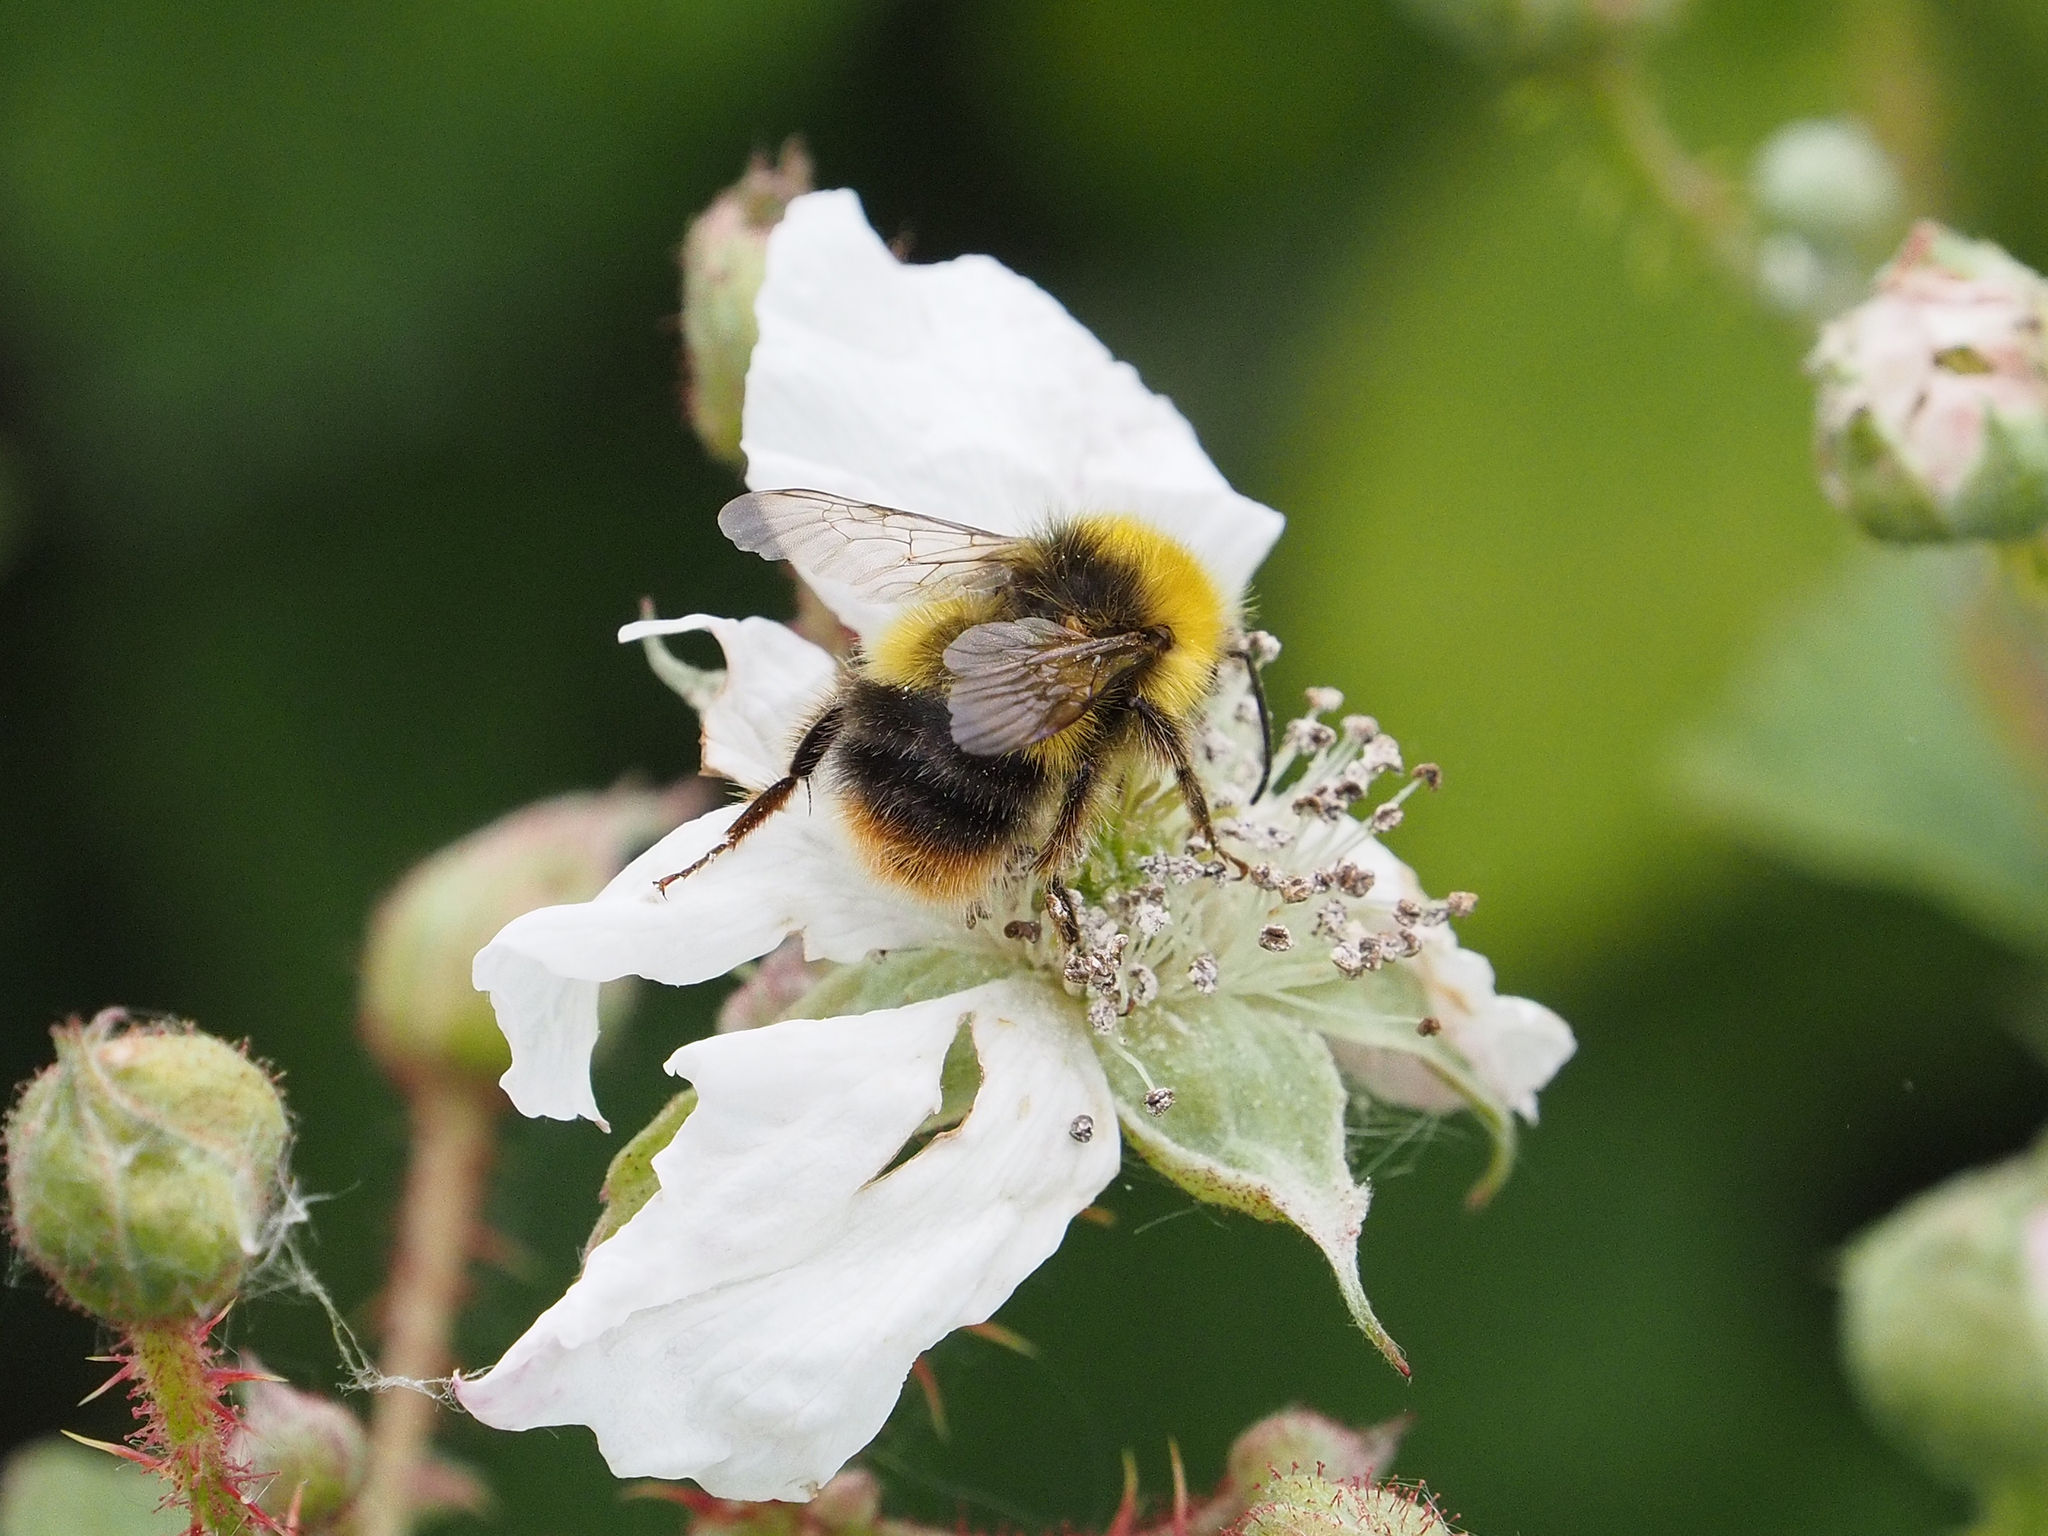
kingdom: Animalia
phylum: Arthropoda
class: Insecta
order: Hymenoptera
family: Apidae
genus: Bombus
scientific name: Bombus pratorum
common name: Early humble-bee
